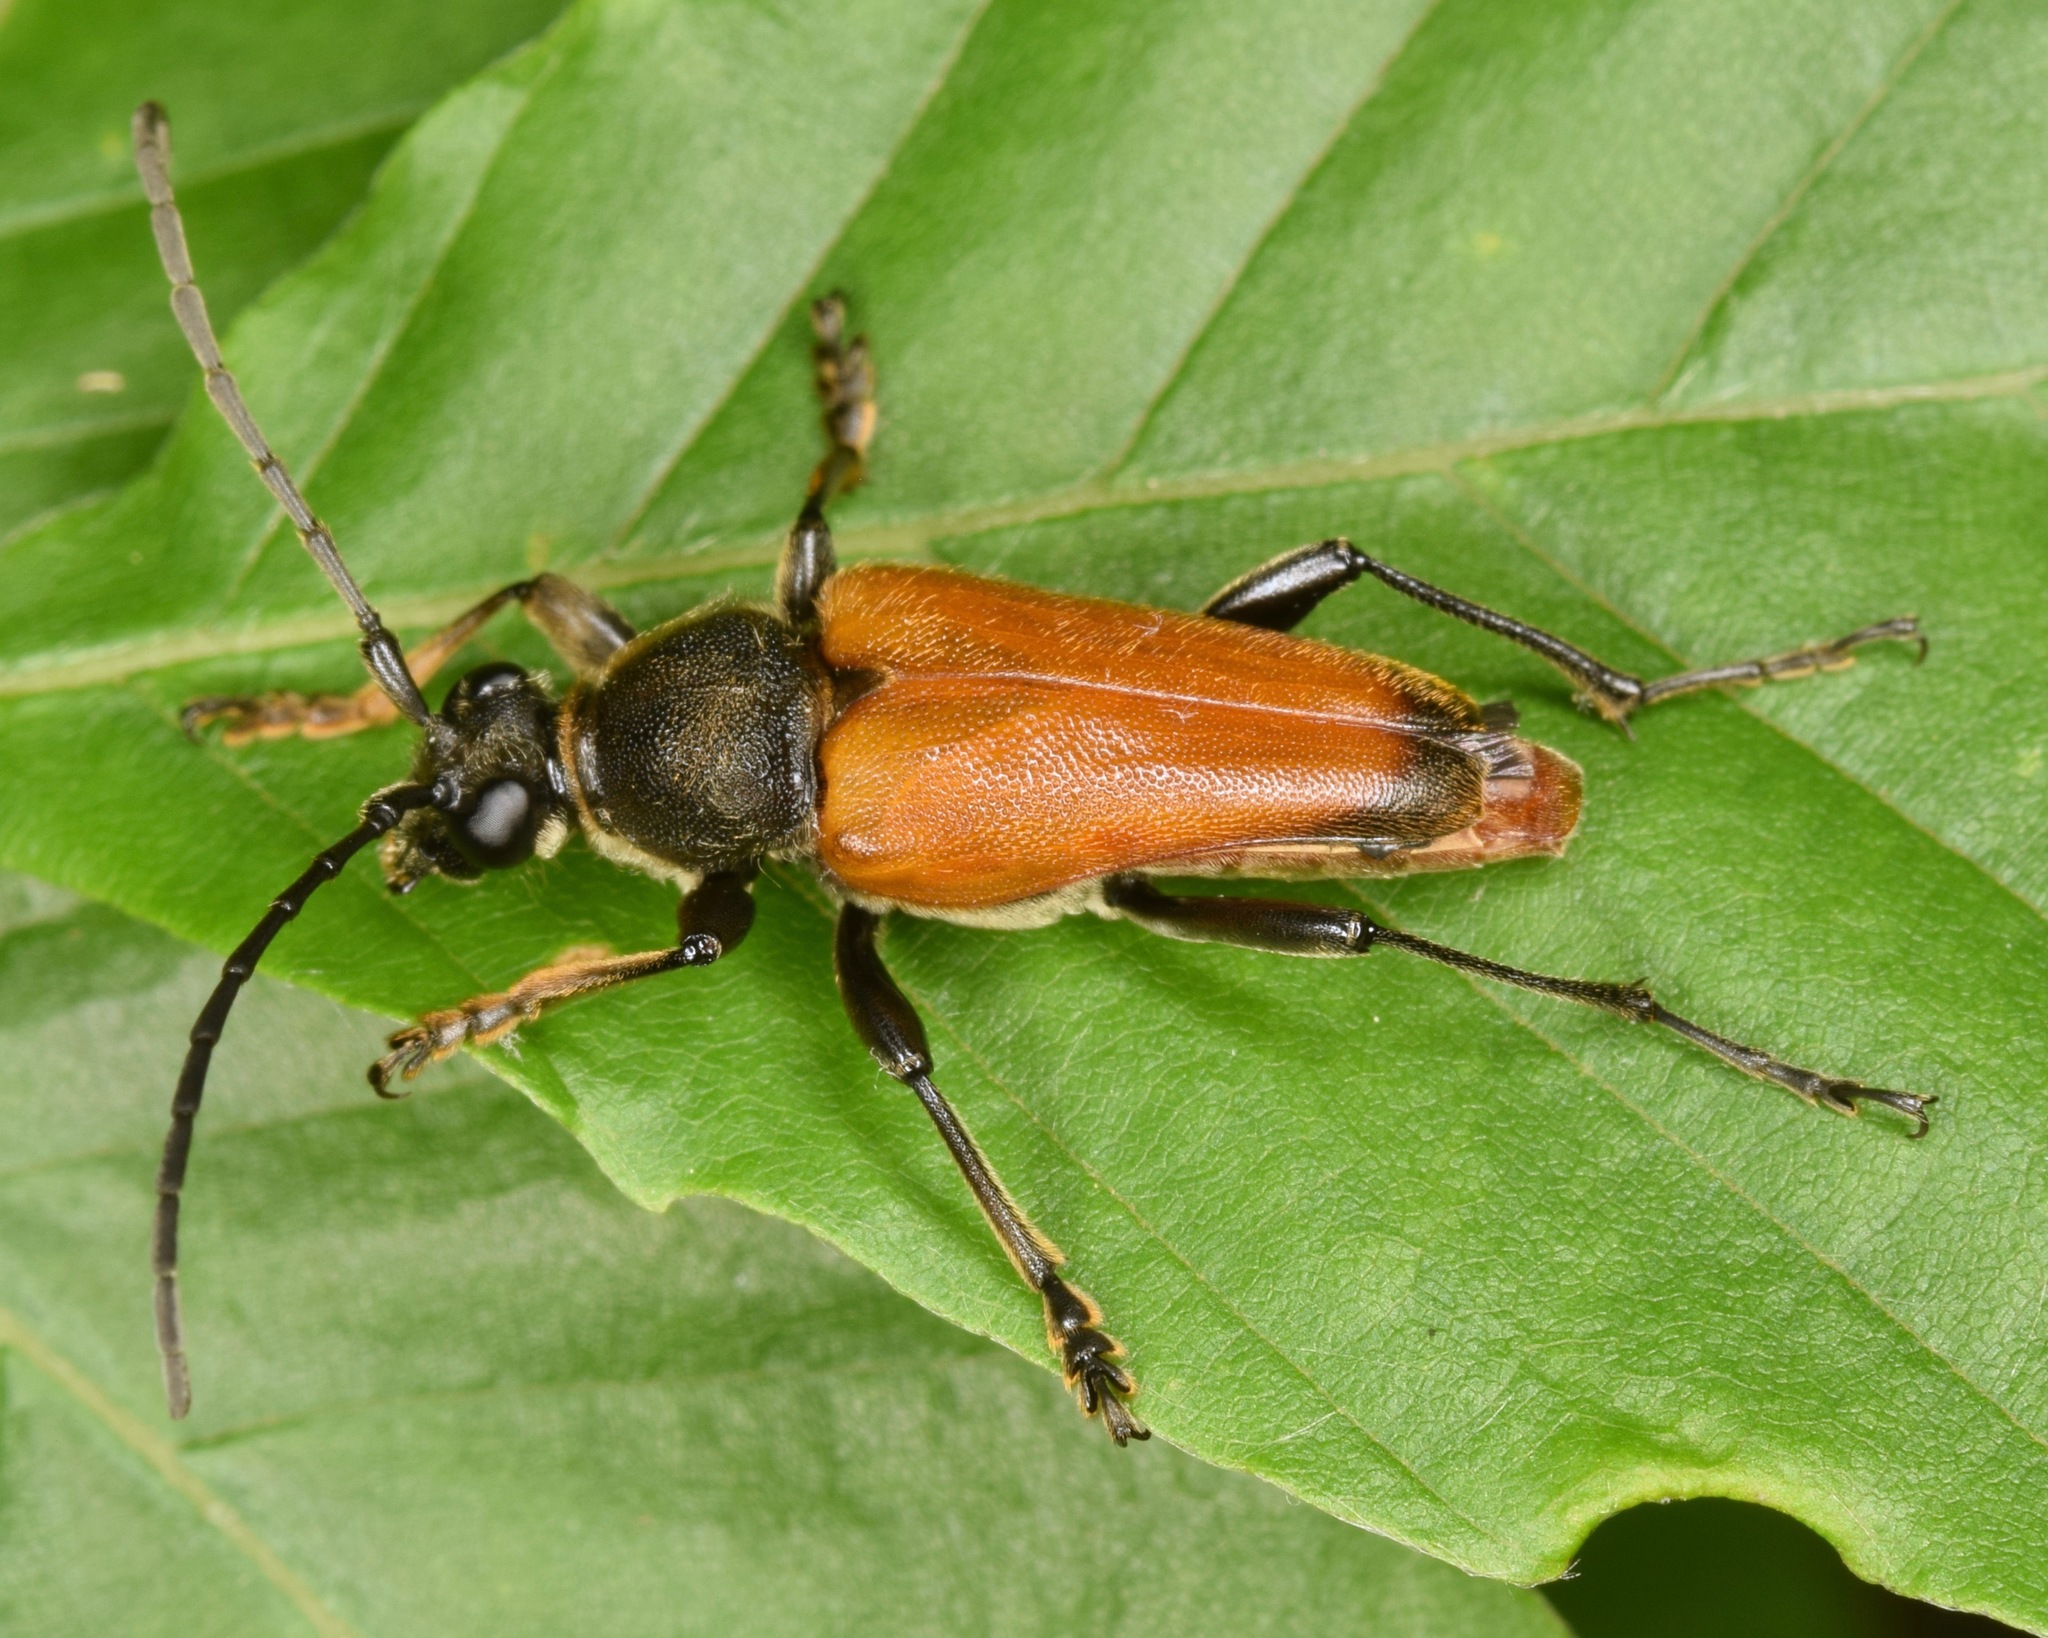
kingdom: Animalia
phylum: Arthropoda
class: Insecta
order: Coleoptera
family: Cerambycidae
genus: Trigonarthris
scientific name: Trigonarthris atrata
